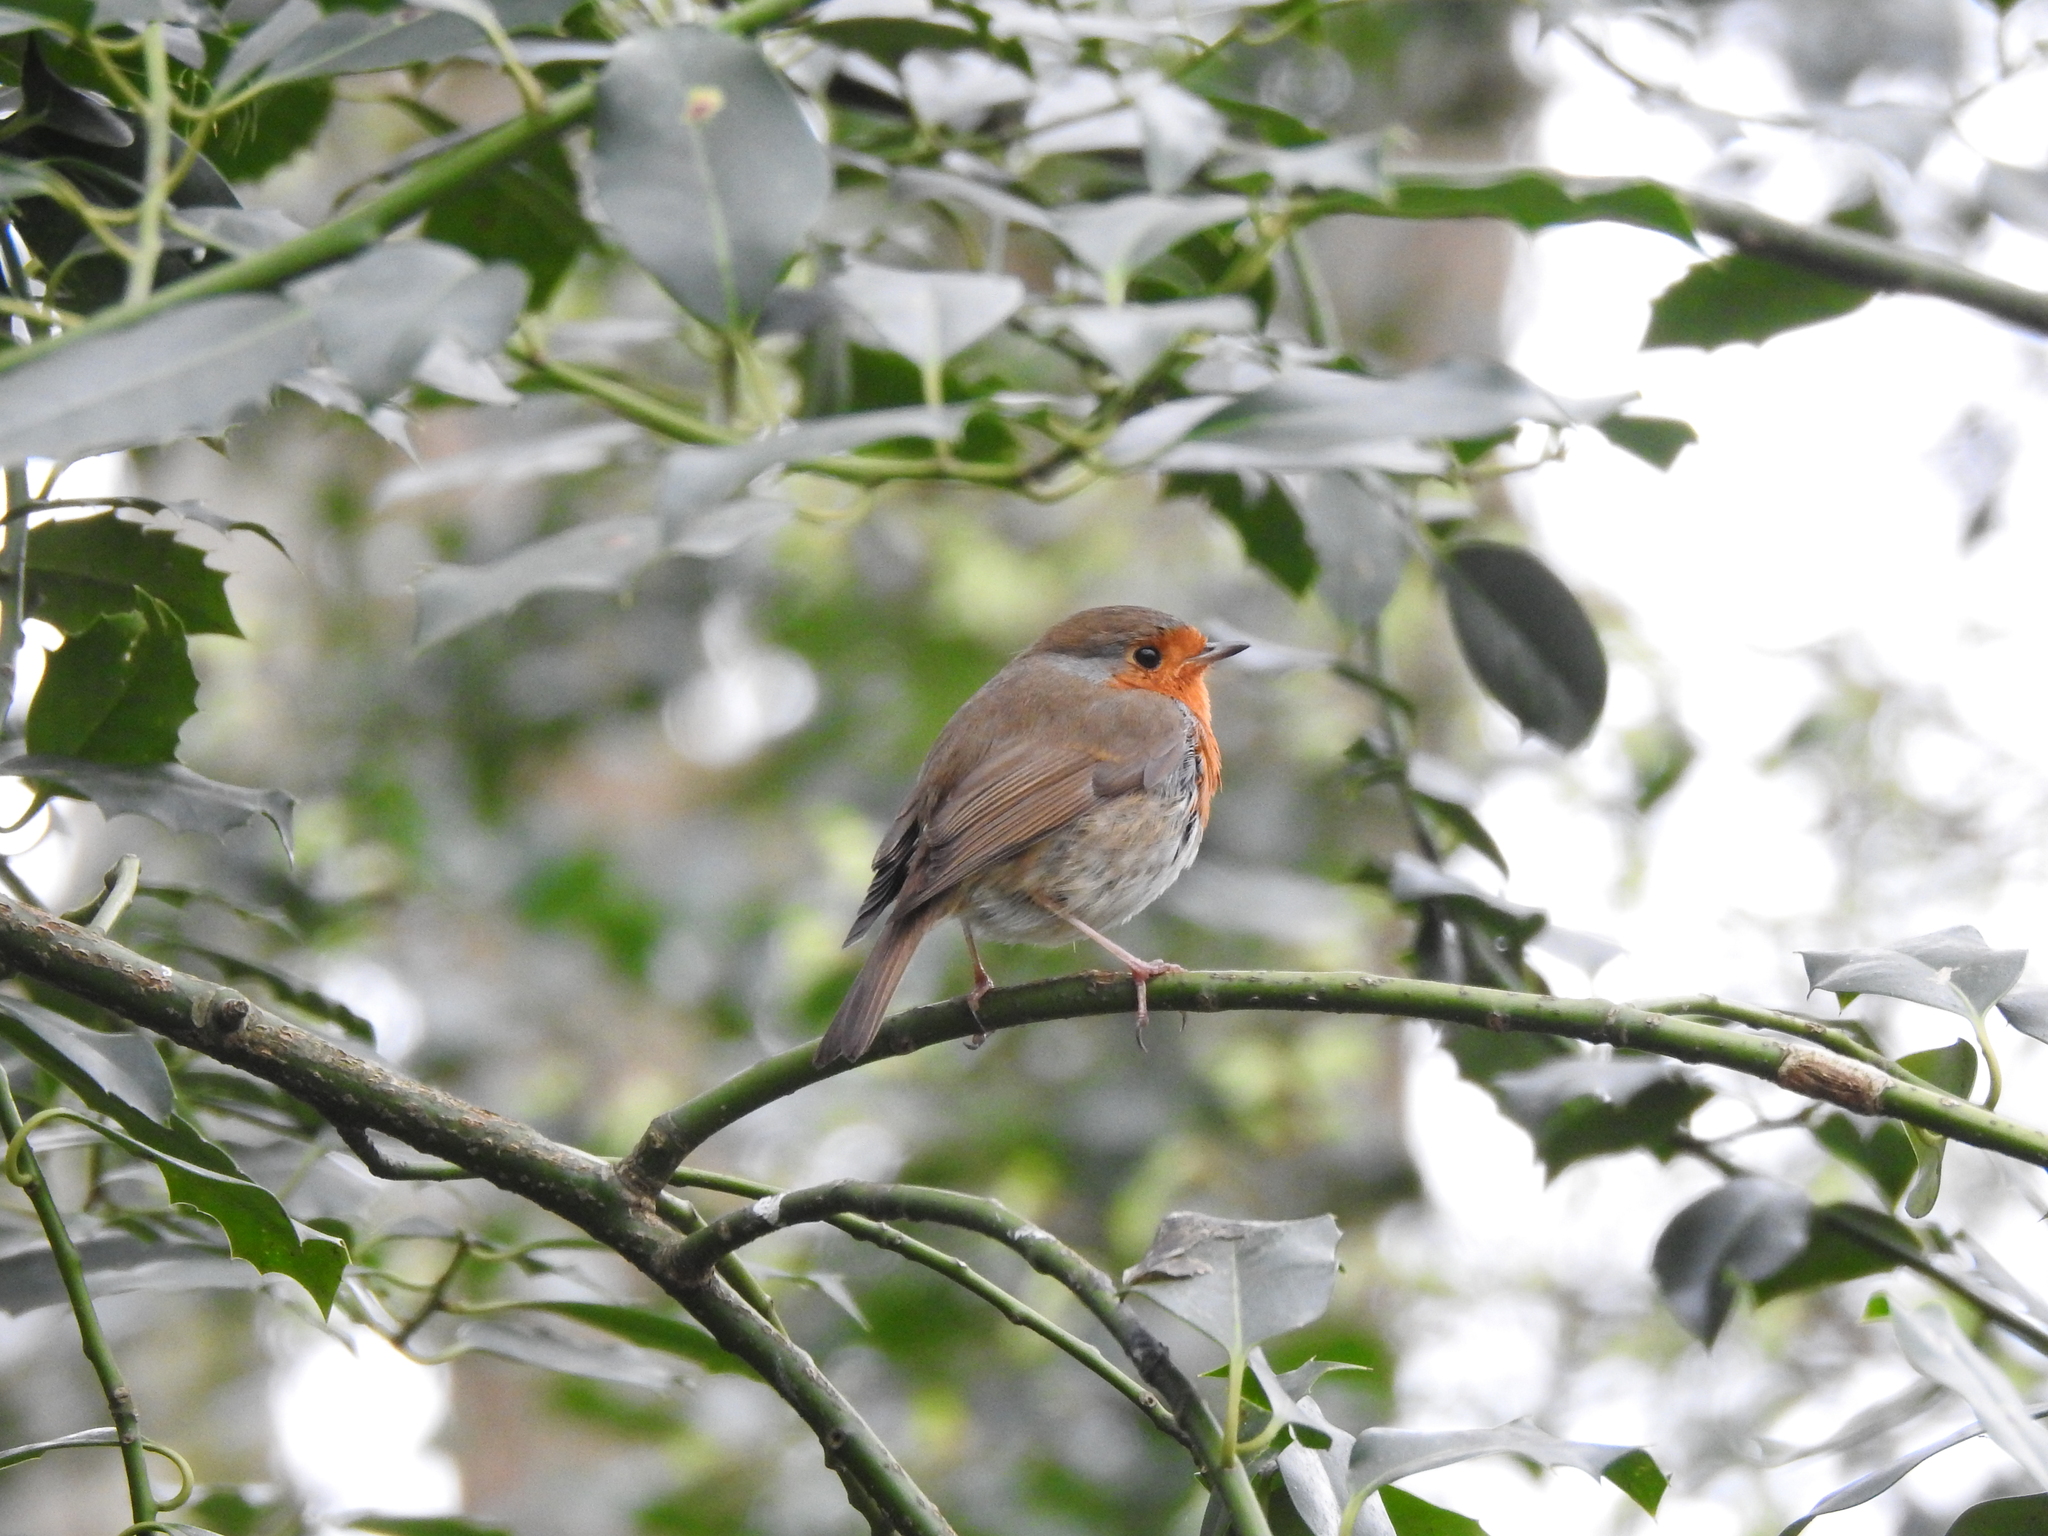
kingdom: Animalia
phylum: Chordata
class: Aves
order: Passeriformes
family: Muscicapidae
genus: Erithacus
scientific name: Erithacus rubecula
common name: European robin
